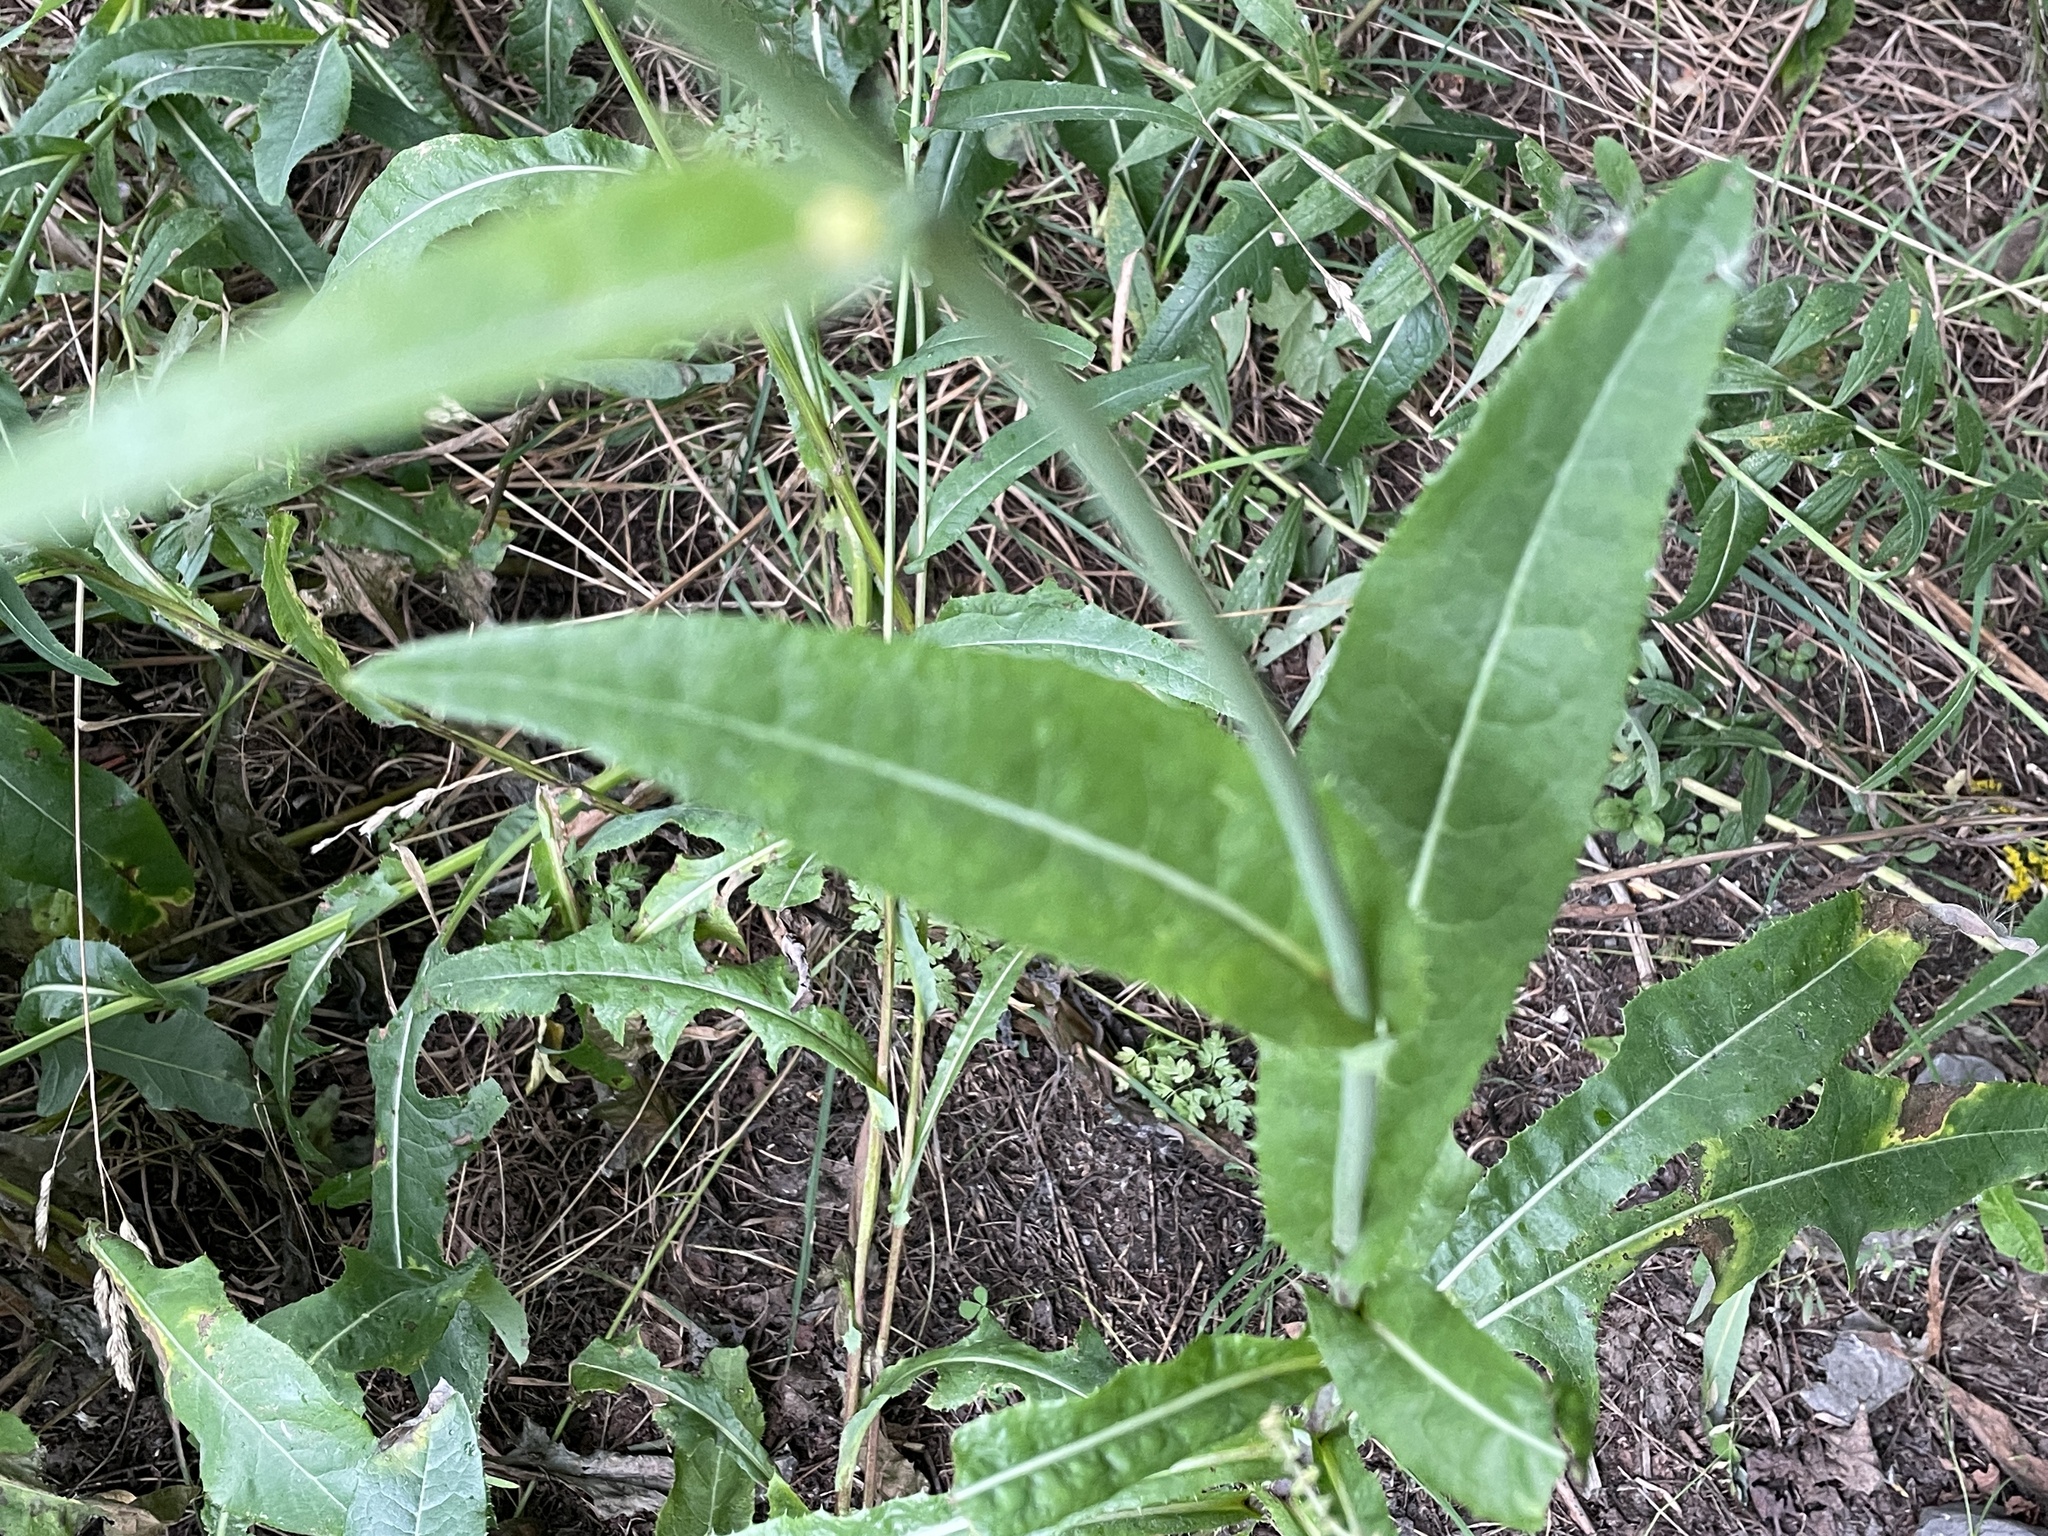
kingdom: Plantae
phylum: Tracheophyta
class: Magnoliopsida
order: Asterales
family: Asteraceae
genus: Sonchus
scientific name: Sonchus arvensis
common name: Perennial sow-thistle
